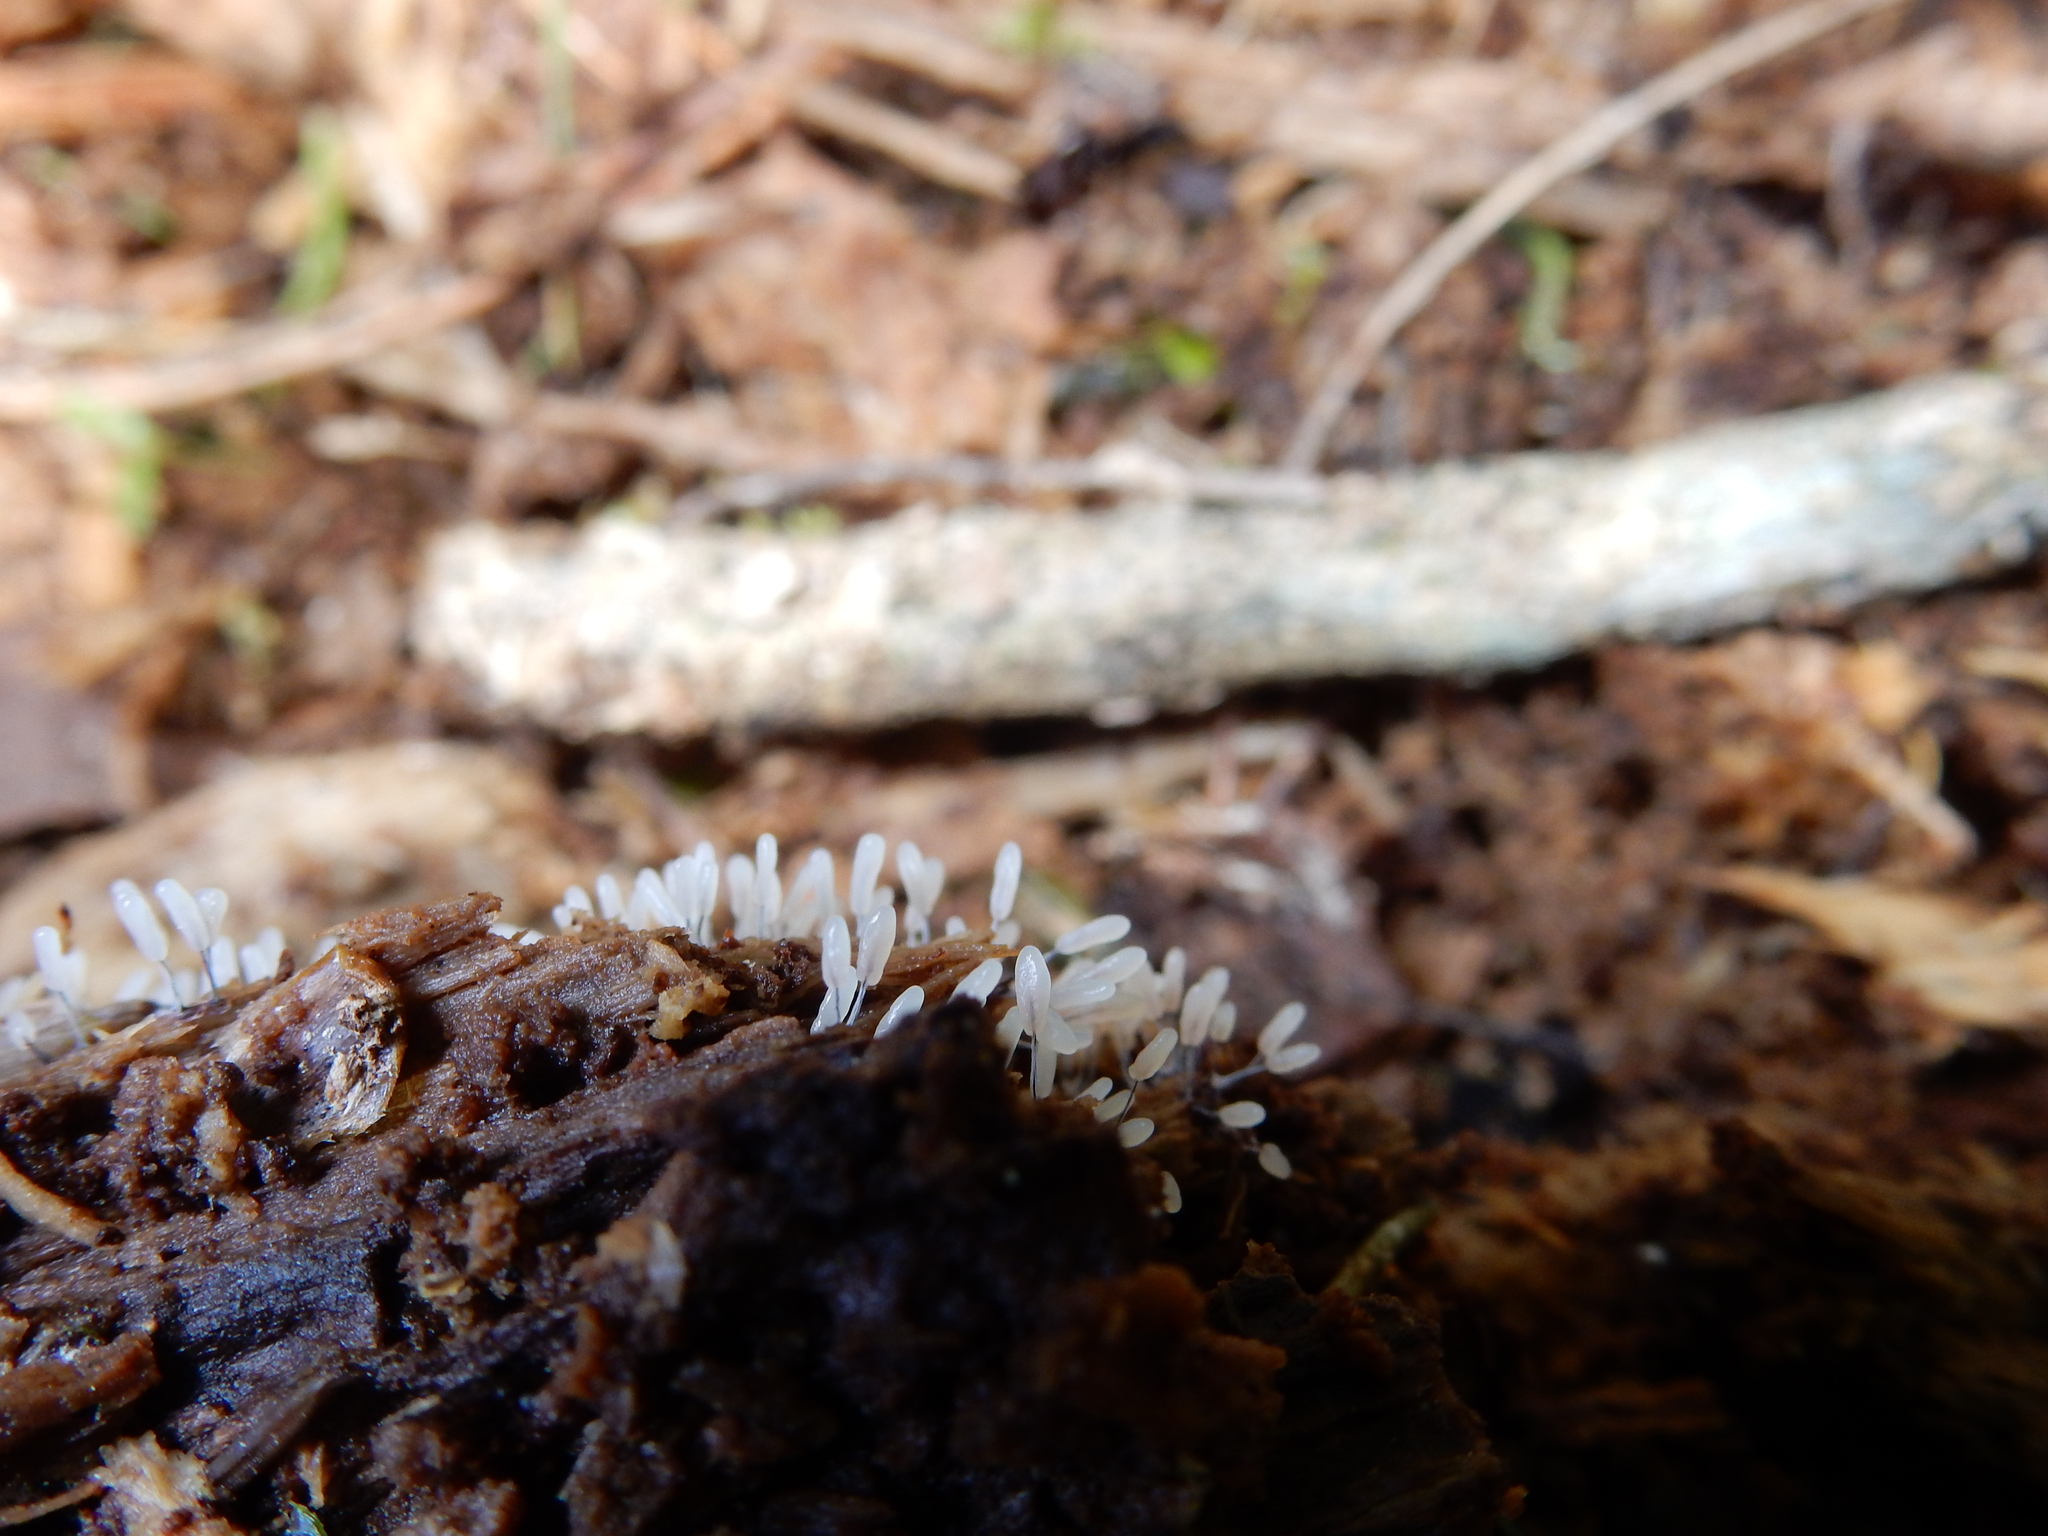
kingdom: Protozoa
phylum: Mycetozoa
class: Myxomycetes
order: Stemonitidales
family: Stemonitidaceae
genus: Stemonitopsis
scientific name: Stemonitopsis typhina
